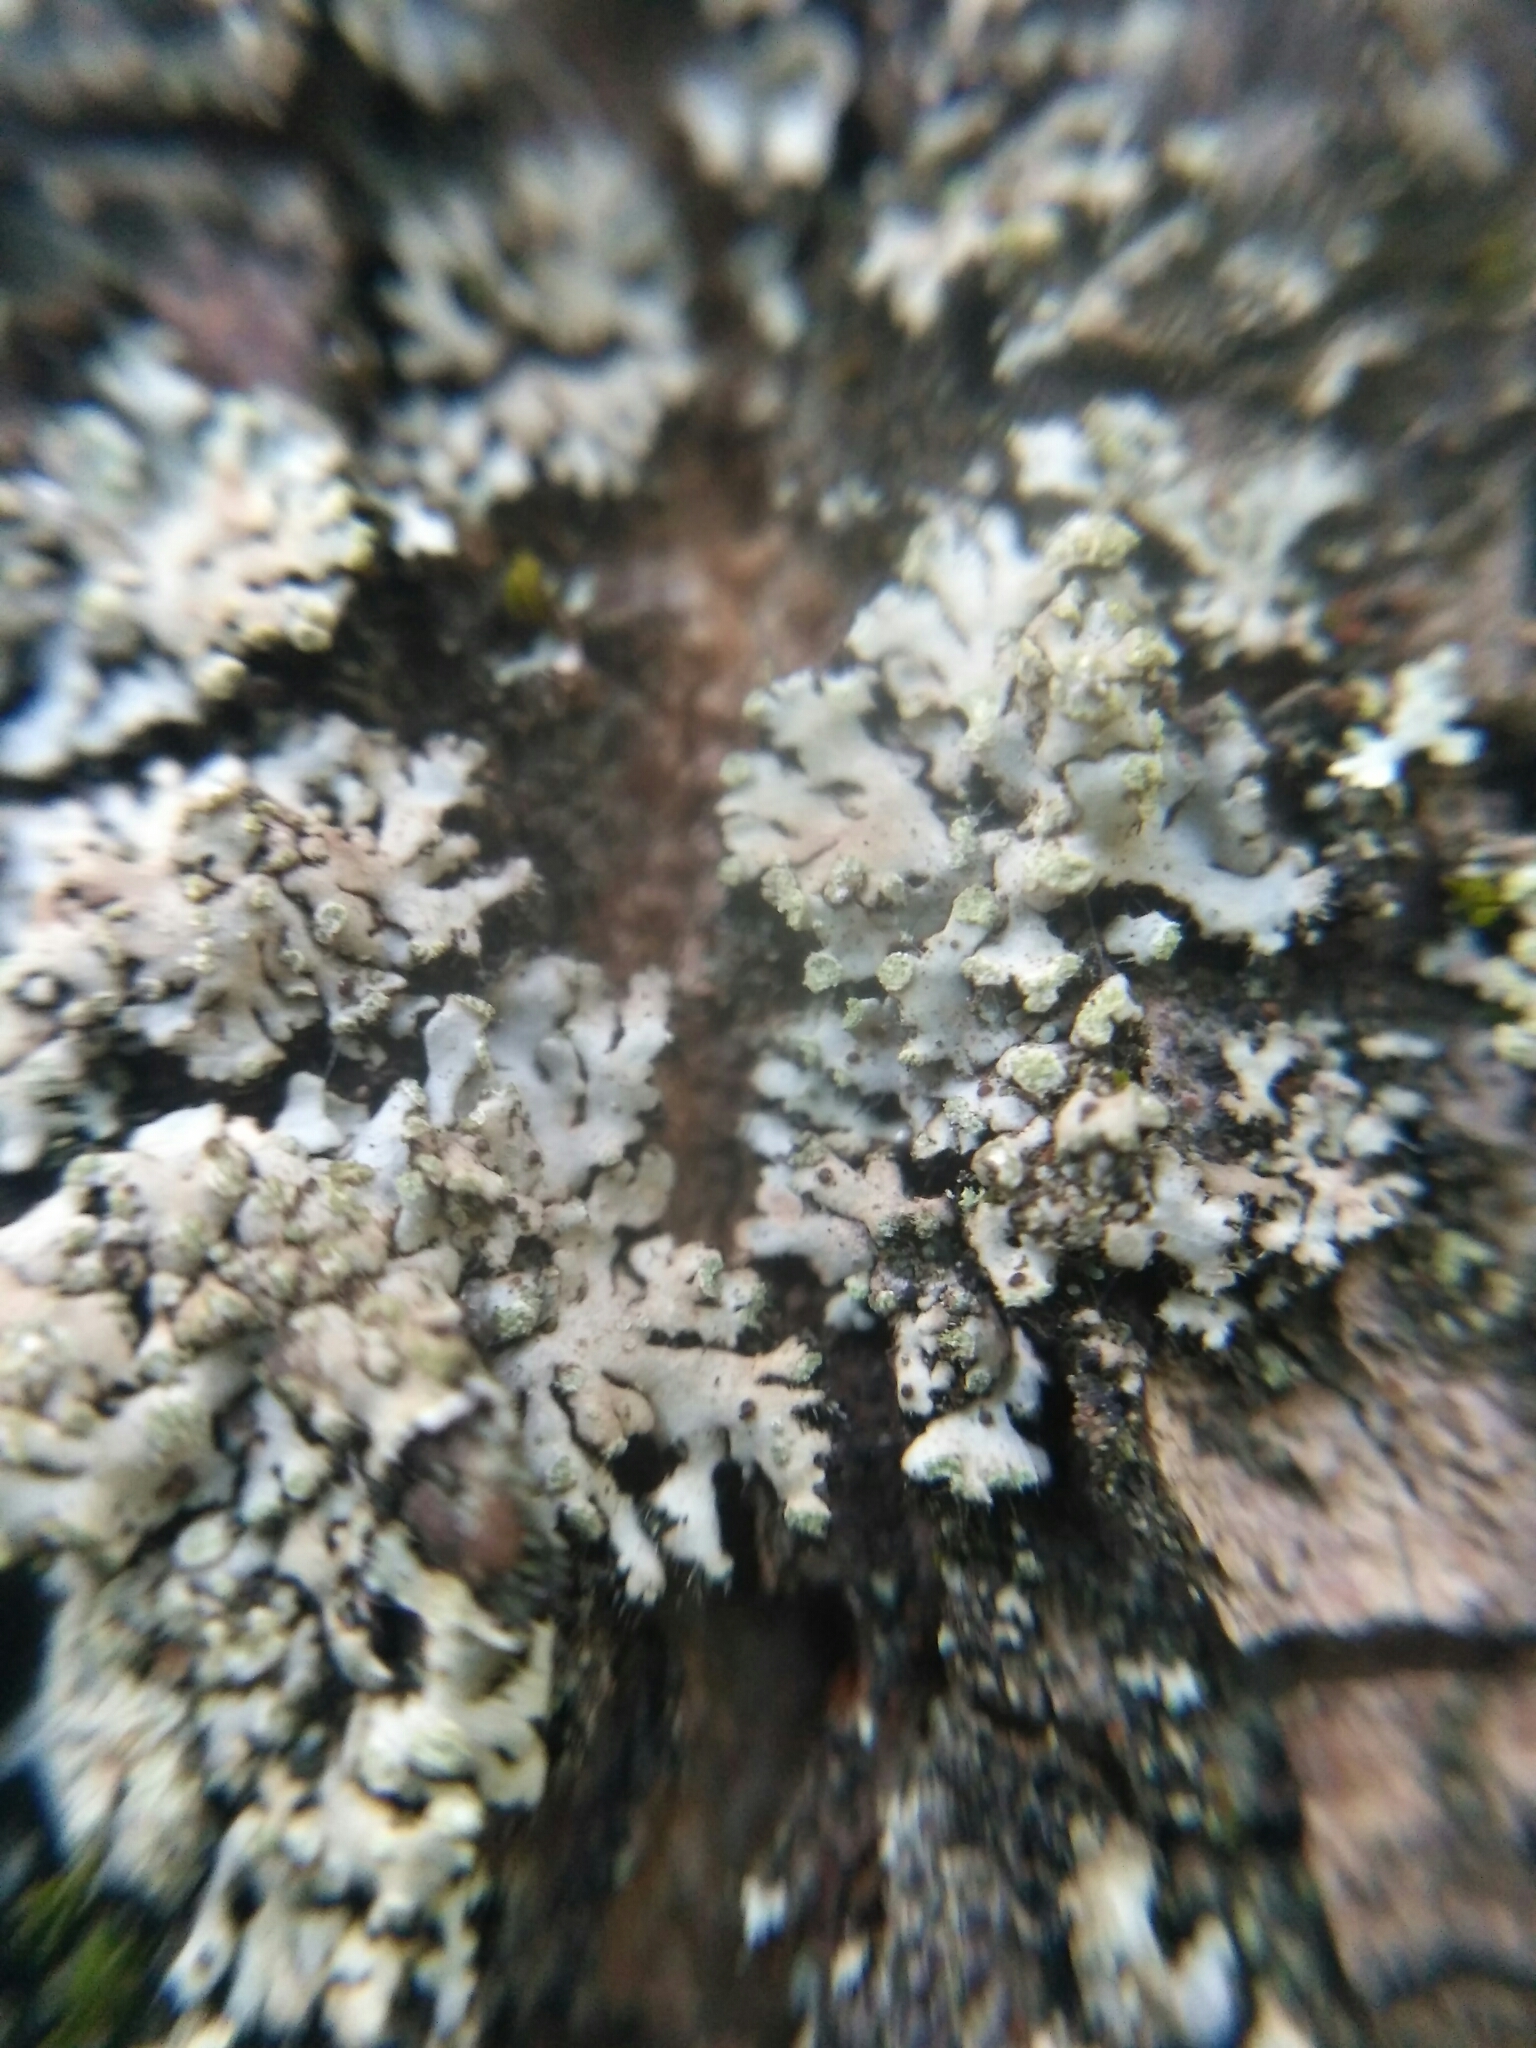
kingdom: Fungi
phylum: Ascomycota
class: Lecanoromycetes
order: Caliciales
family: Physciaceae
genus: Phaeophyscia
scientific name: Phaeophyscia orbicularis
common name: Mealy shadow lichen
